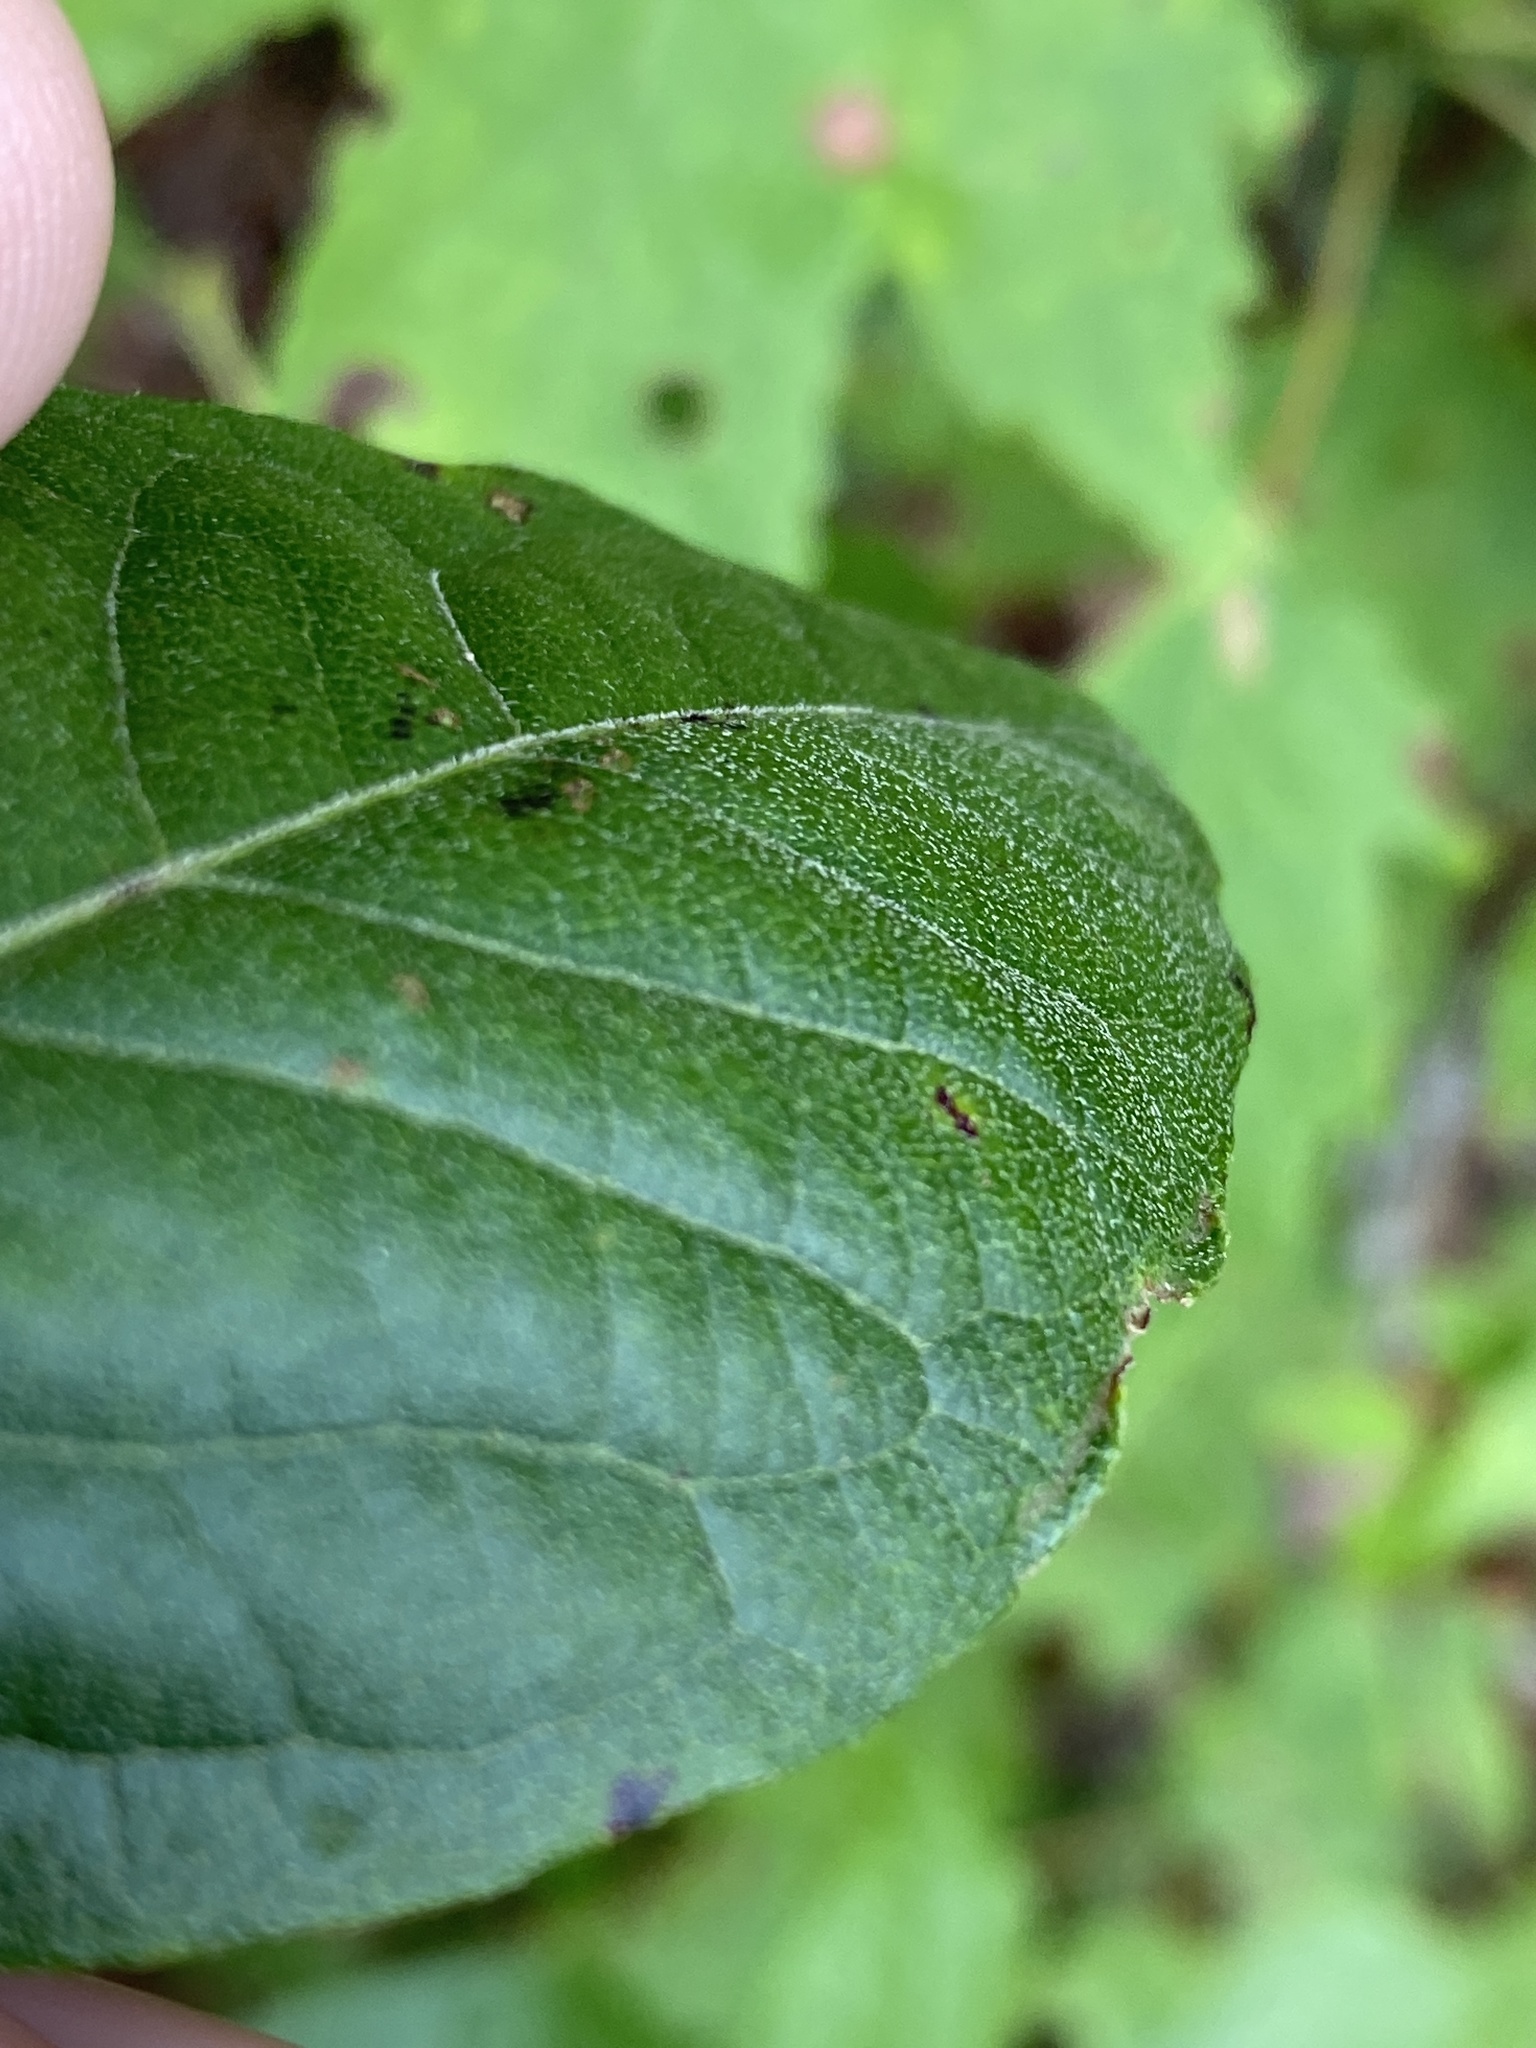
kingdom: Plantae
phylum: Tracheophyta
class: Magnoliopsida
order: Ericales
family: Ericaceae
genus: Lyonia
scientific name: Lyonia ligustrina
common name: Maleberry
